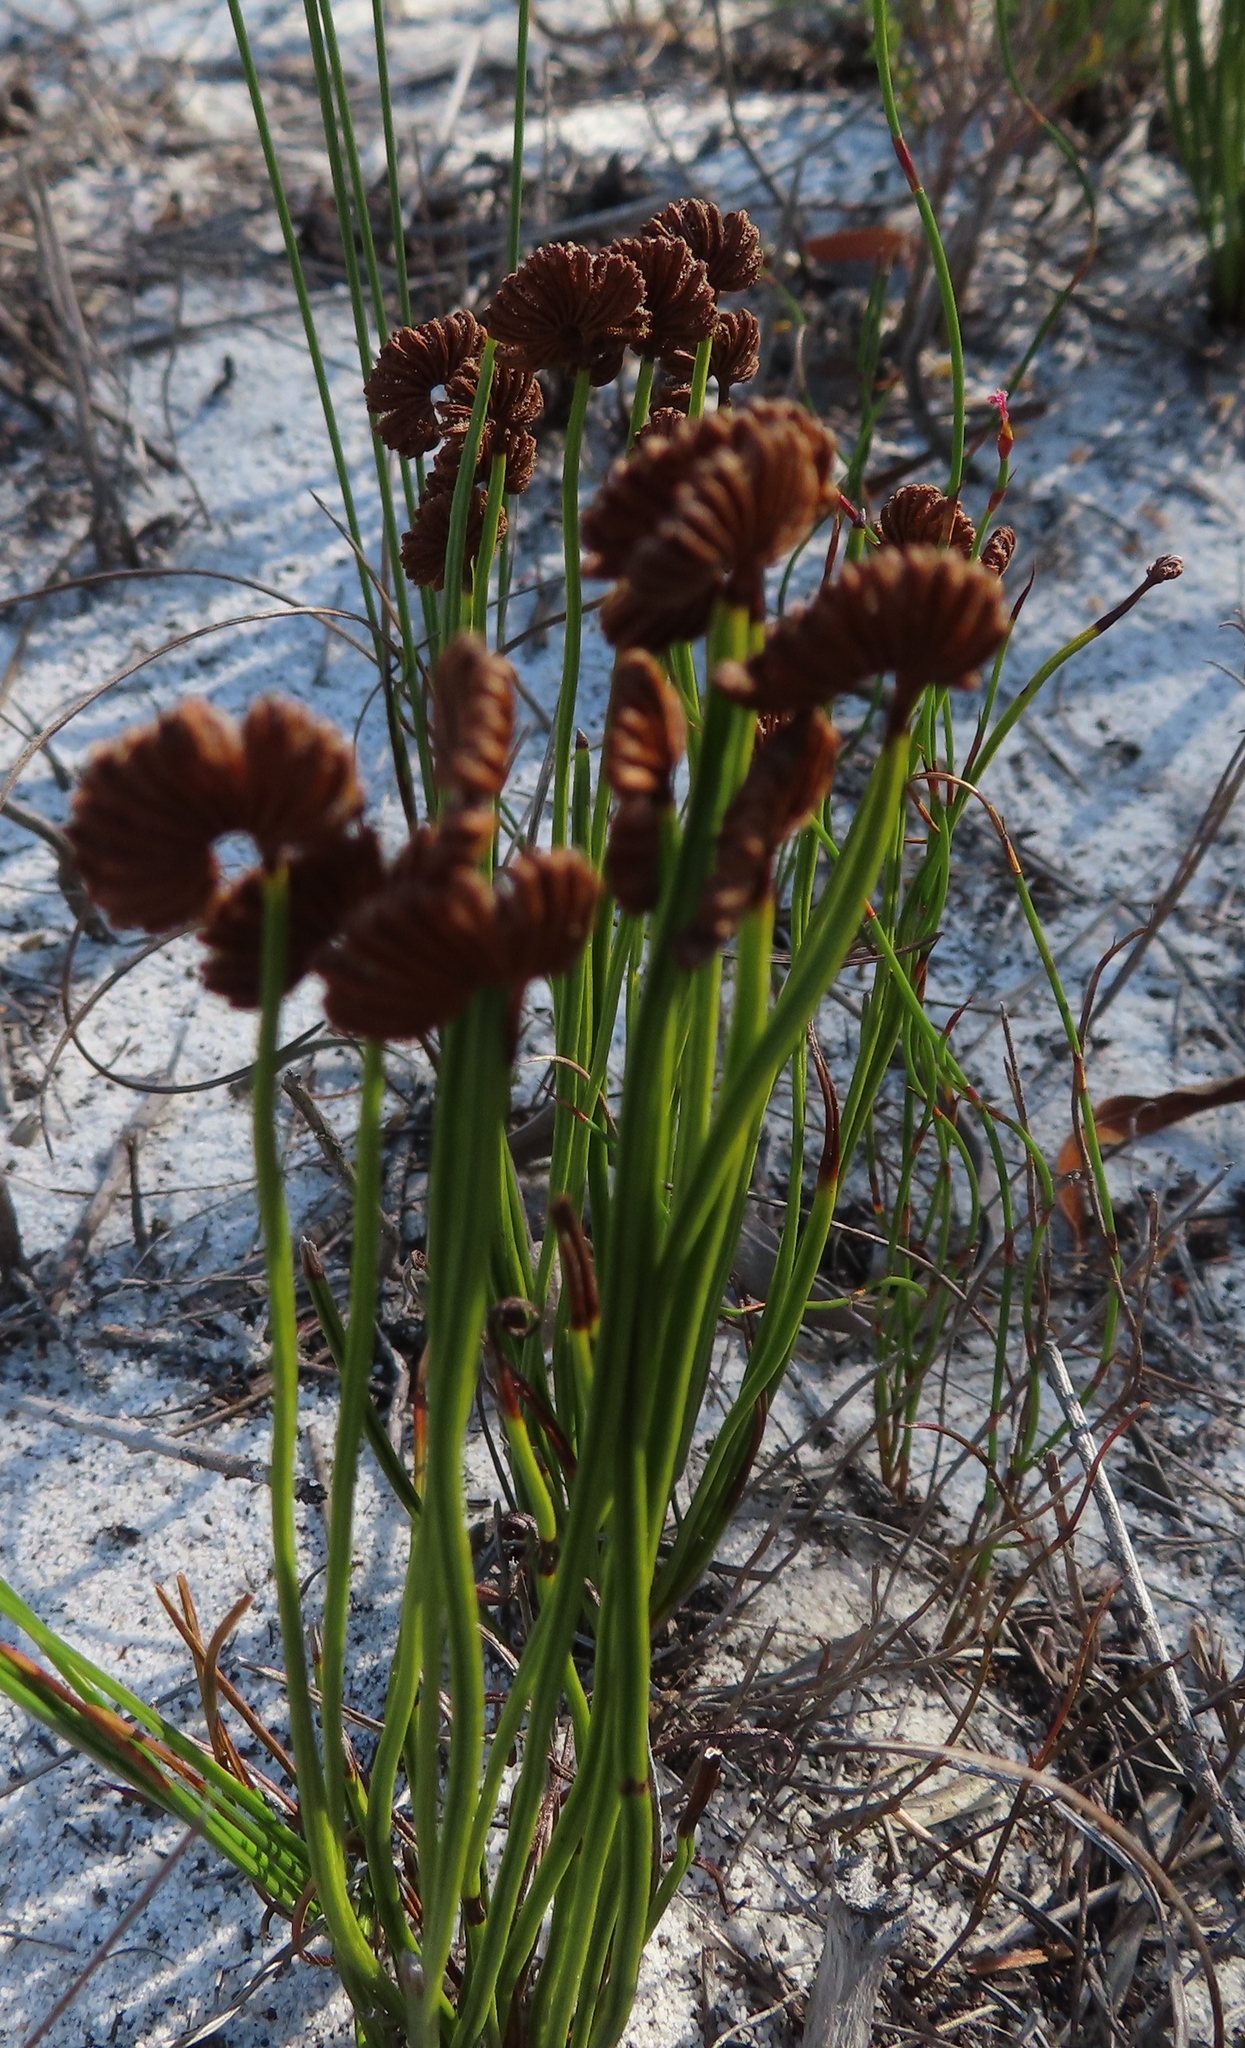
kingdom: Plantae
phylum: Tracheophyta
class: Polypodiopsida
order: Schizaeales
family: Schizaeaceae
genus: Schizaea
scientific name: Schizaea pectinata
